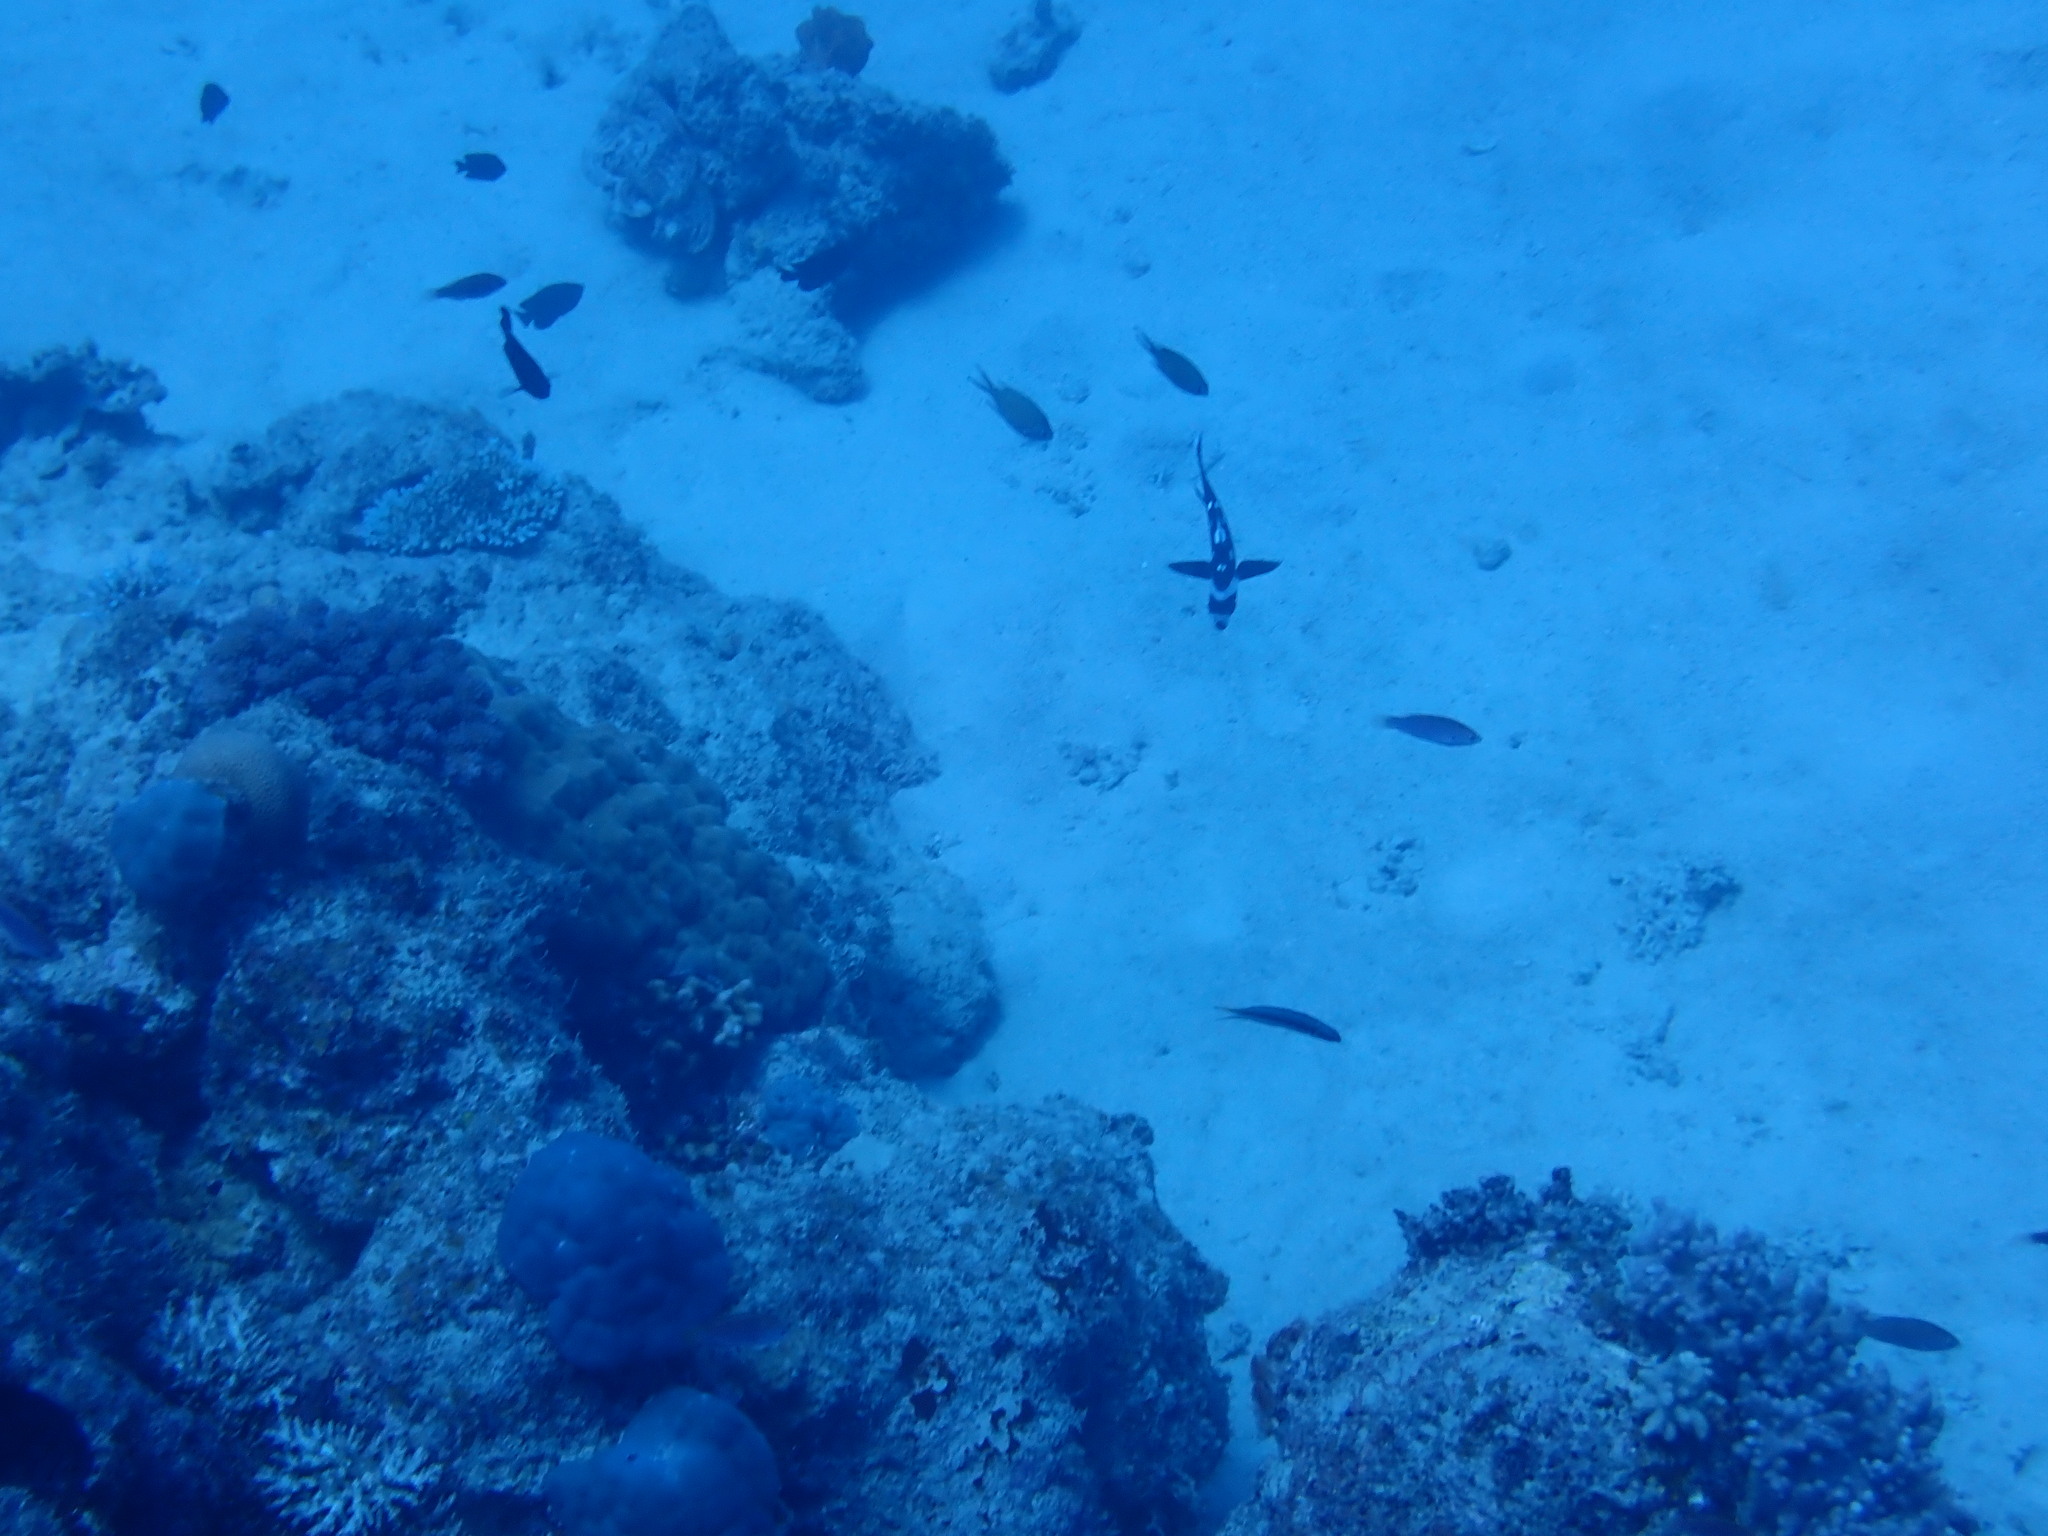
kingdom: Animalia
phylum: Chordata
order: Perciformes
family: Lutjanidae
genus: Macolor
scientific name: Macolor niger
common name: Black snapper
